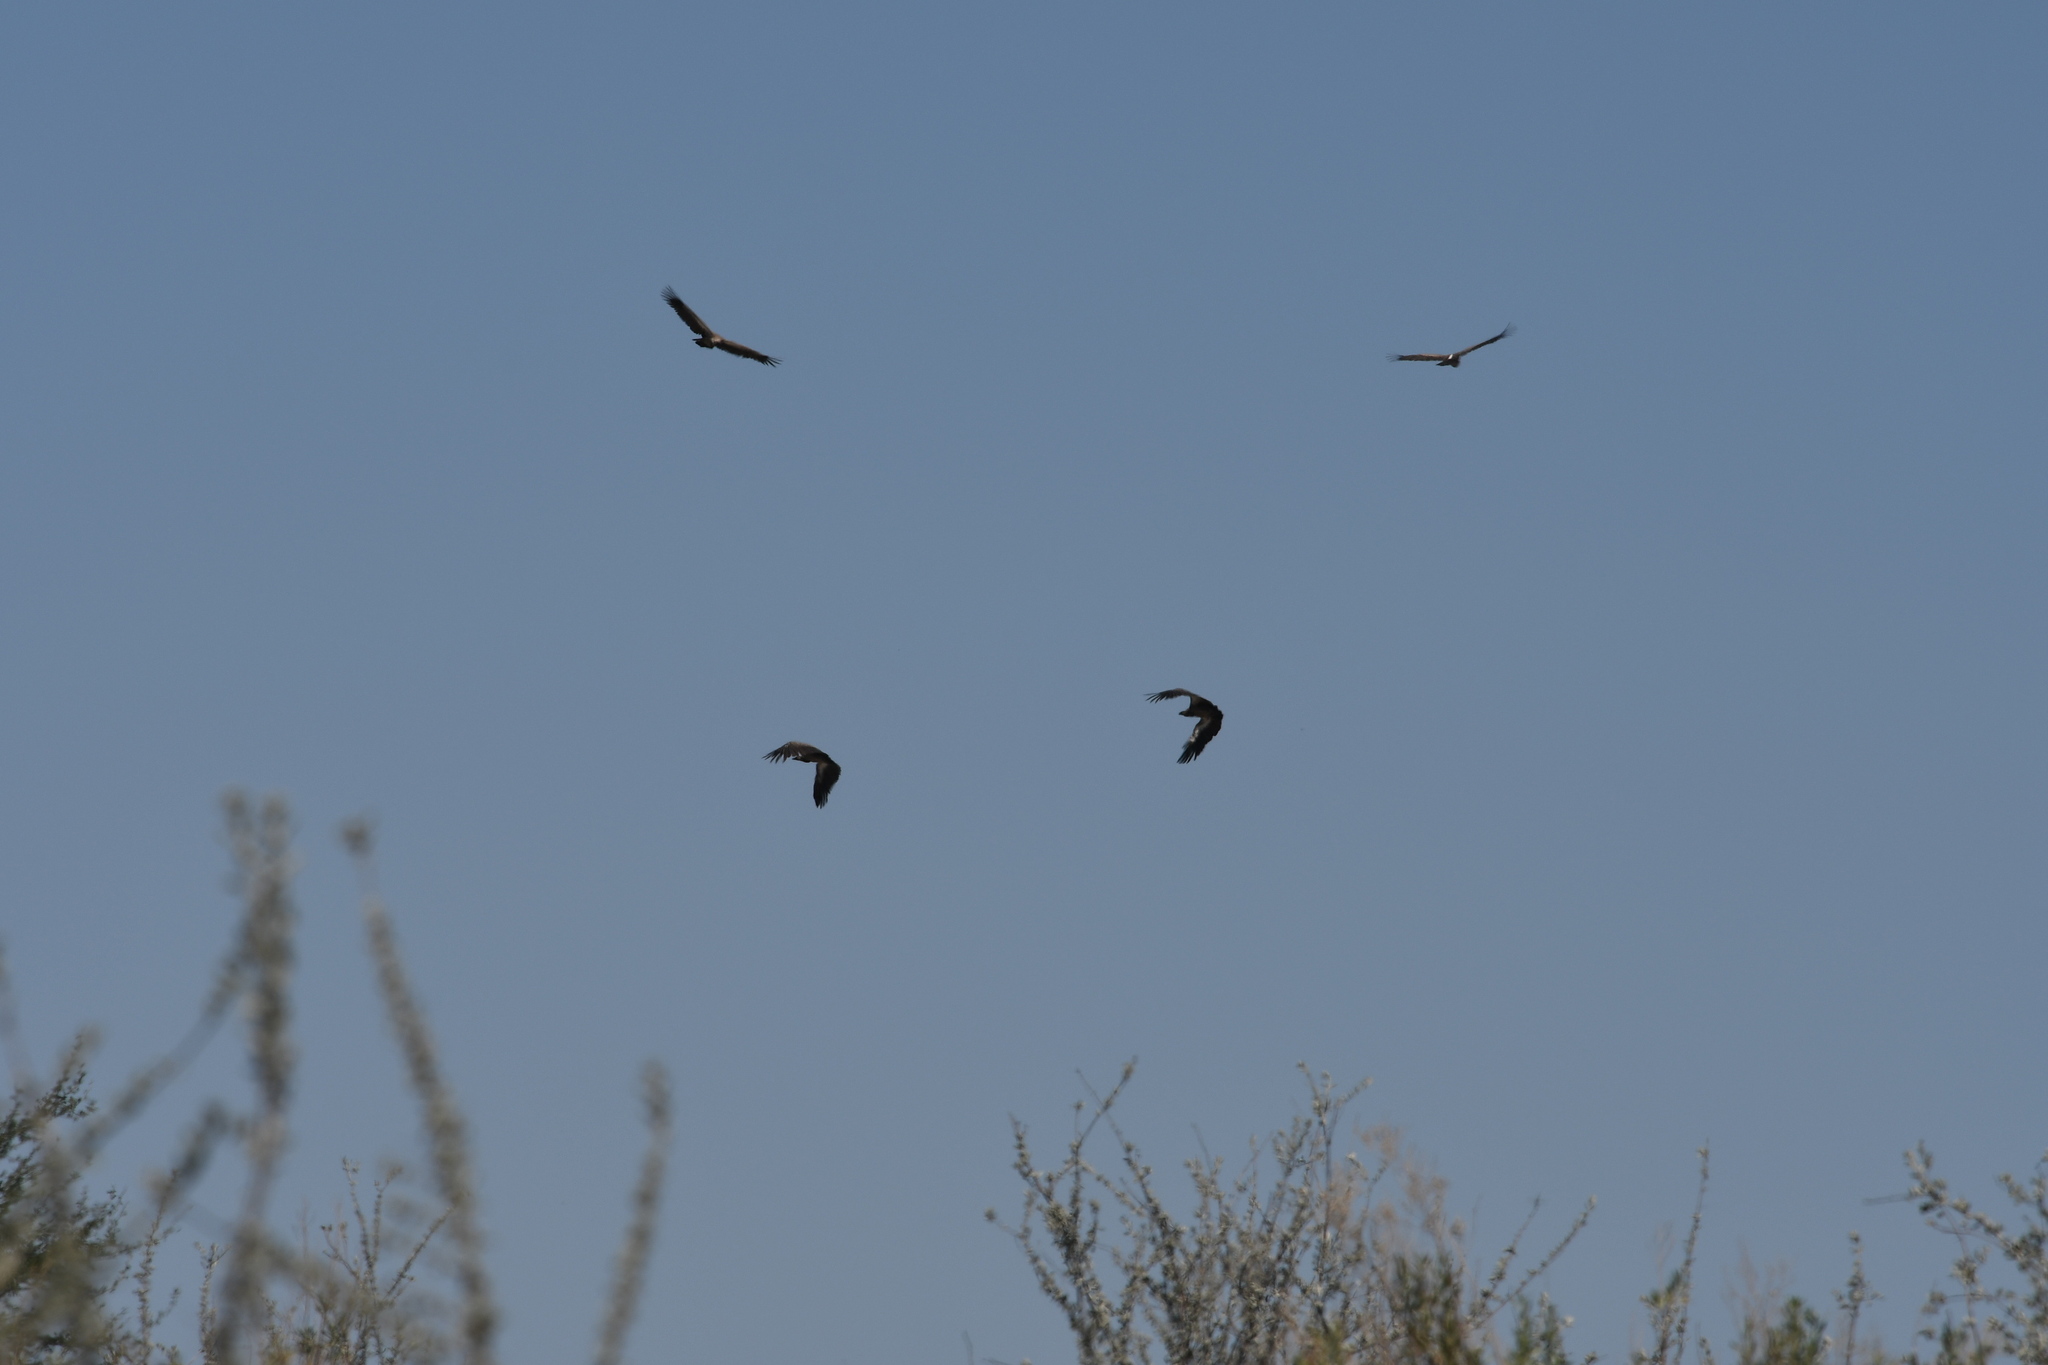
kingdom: Animalia
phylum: Chordata
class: Aves
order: Accipitriformes
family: Accipitridae
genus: Gyps
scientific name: Gyps africanus
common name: White-backed vulture
